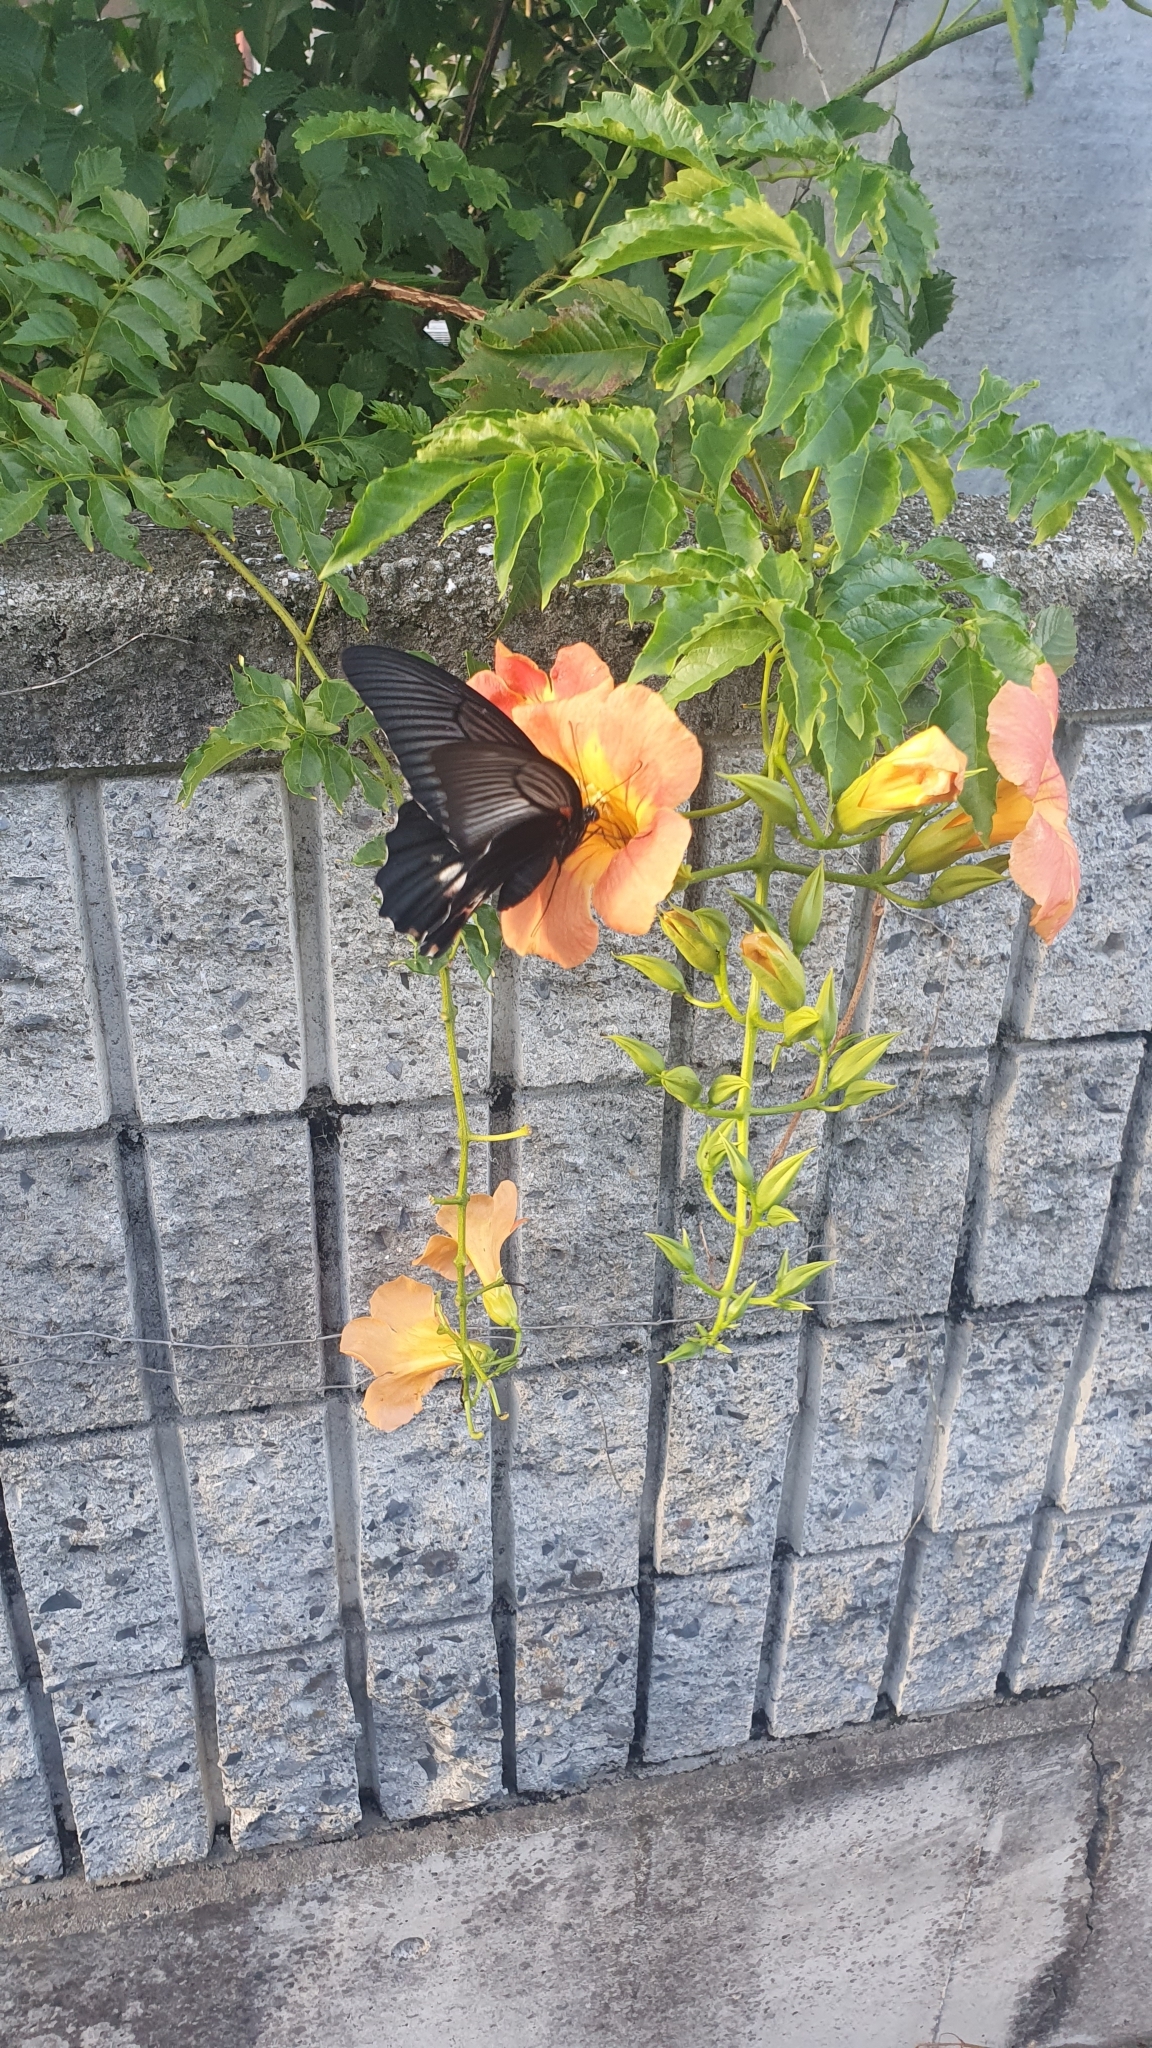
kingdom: Animalia
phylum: Arthropoda
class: Insecta
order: Lepidoptera
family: Papilionidae
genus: Papilio
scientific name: Papilio memnon
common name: Great mormon
